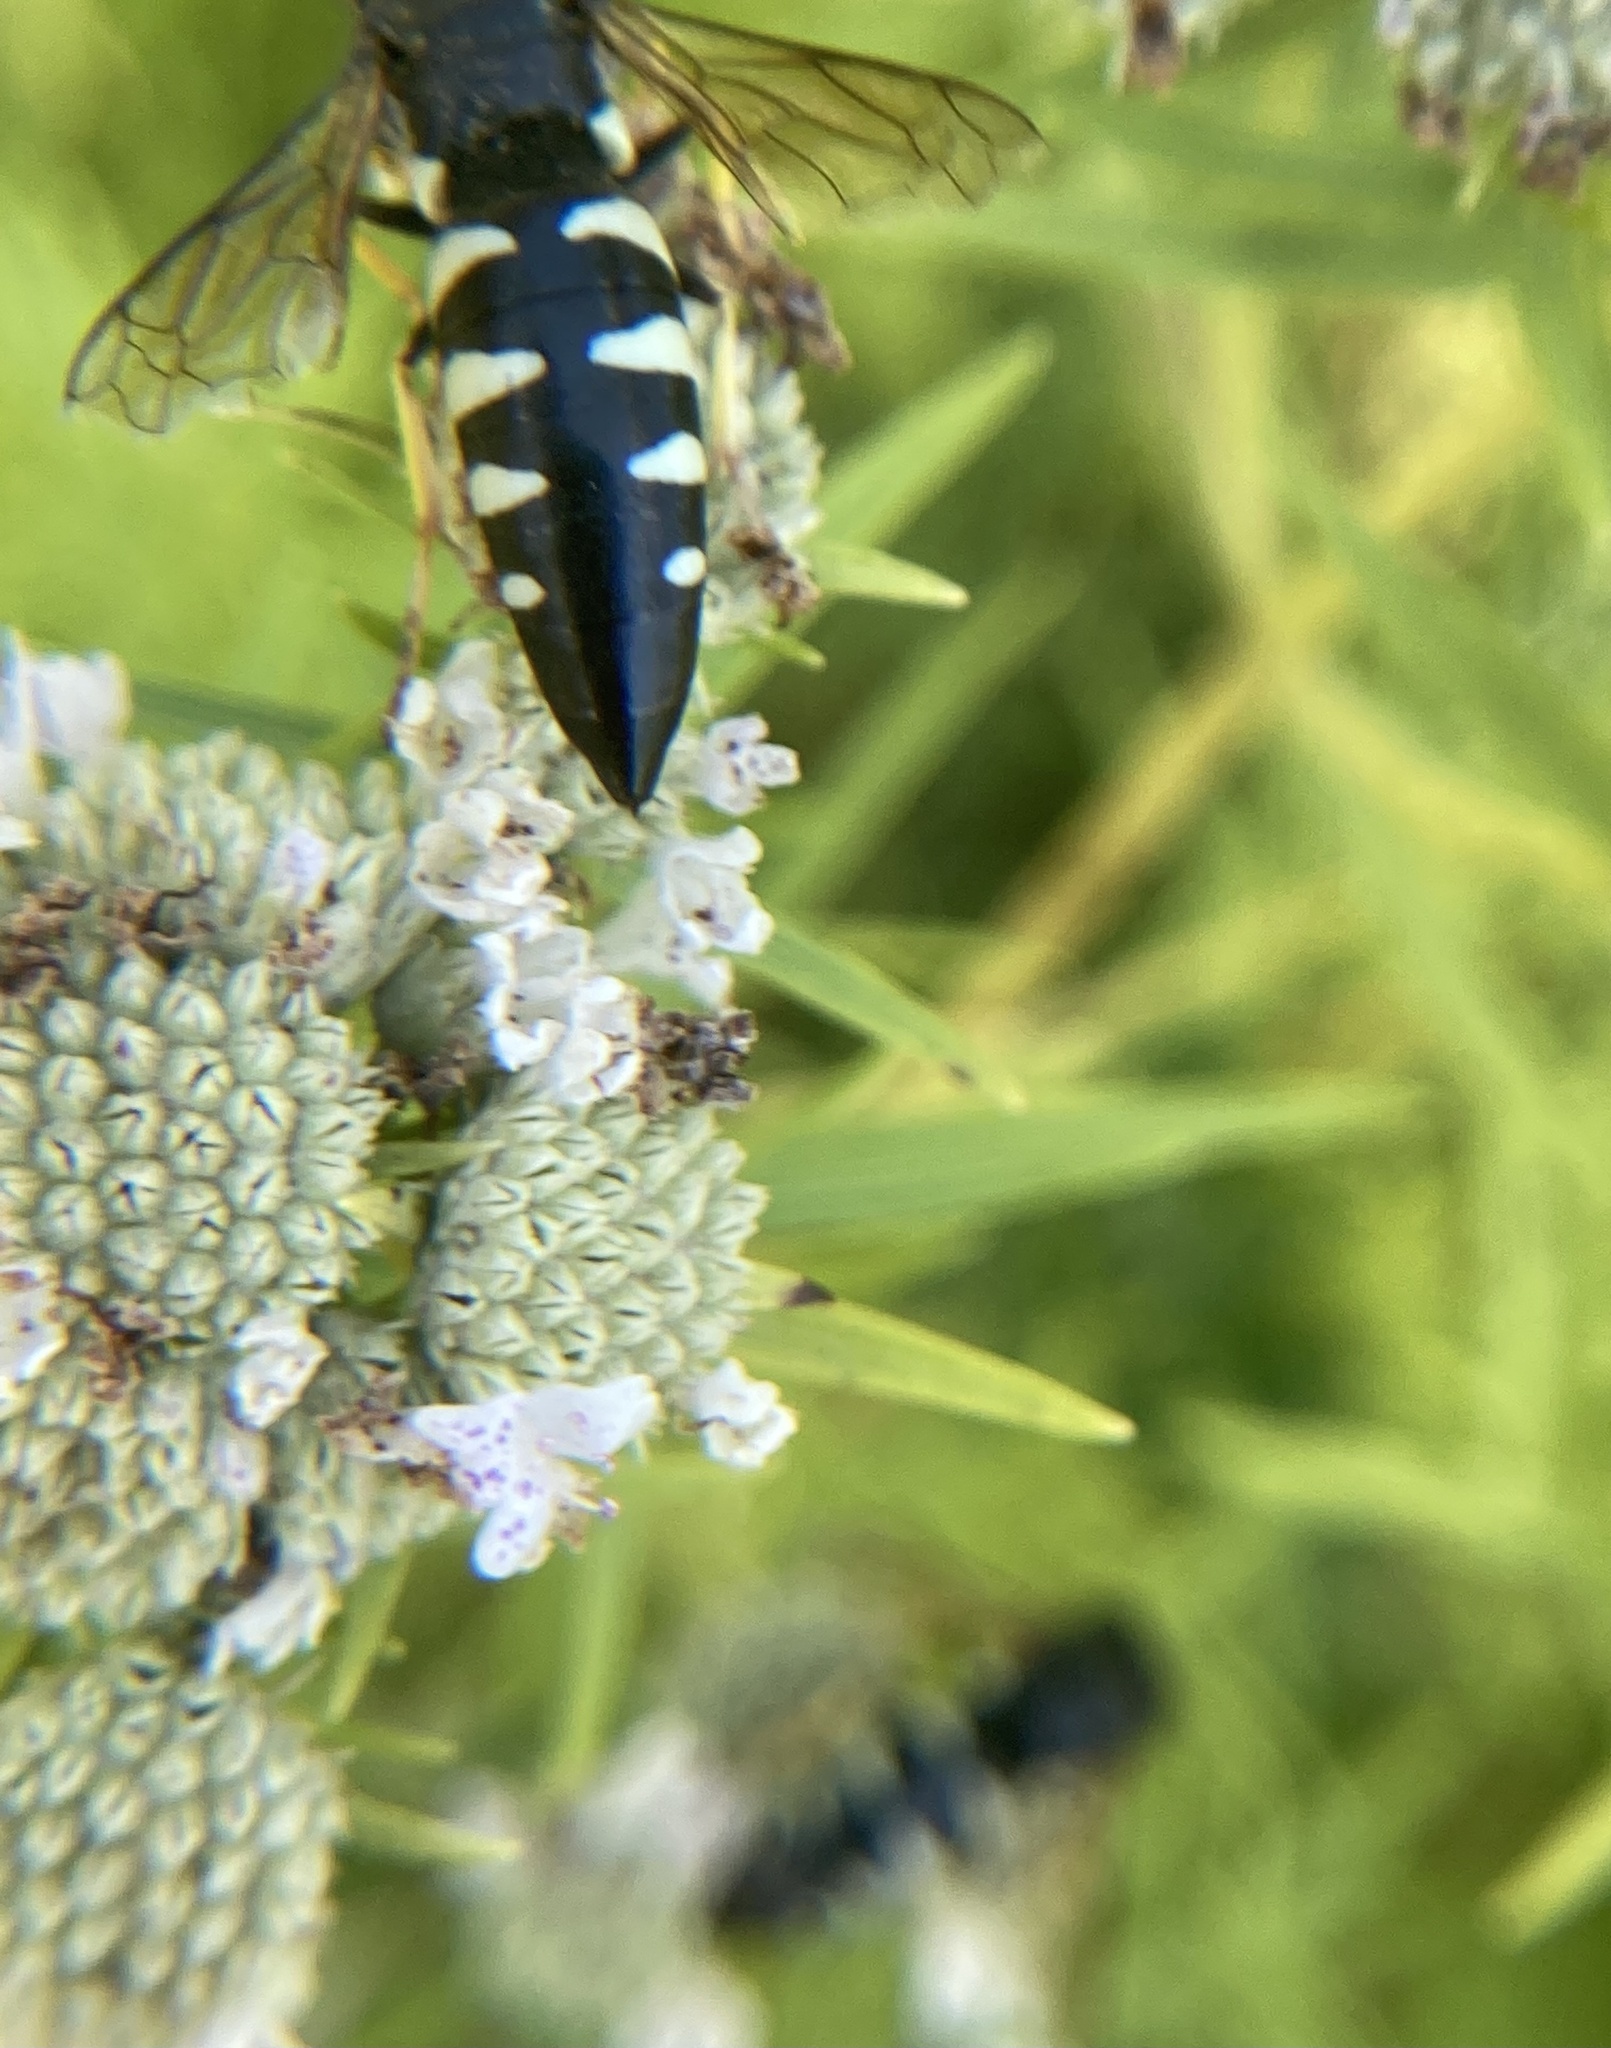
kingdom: Animalia
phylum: Arthropoda
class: Insecta
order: Hymenoptera
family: Crabronidae
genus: Bicyrtes
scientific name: Bicyrtes quadrifasciatus
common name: Four-banded stink bug hunter wasp
